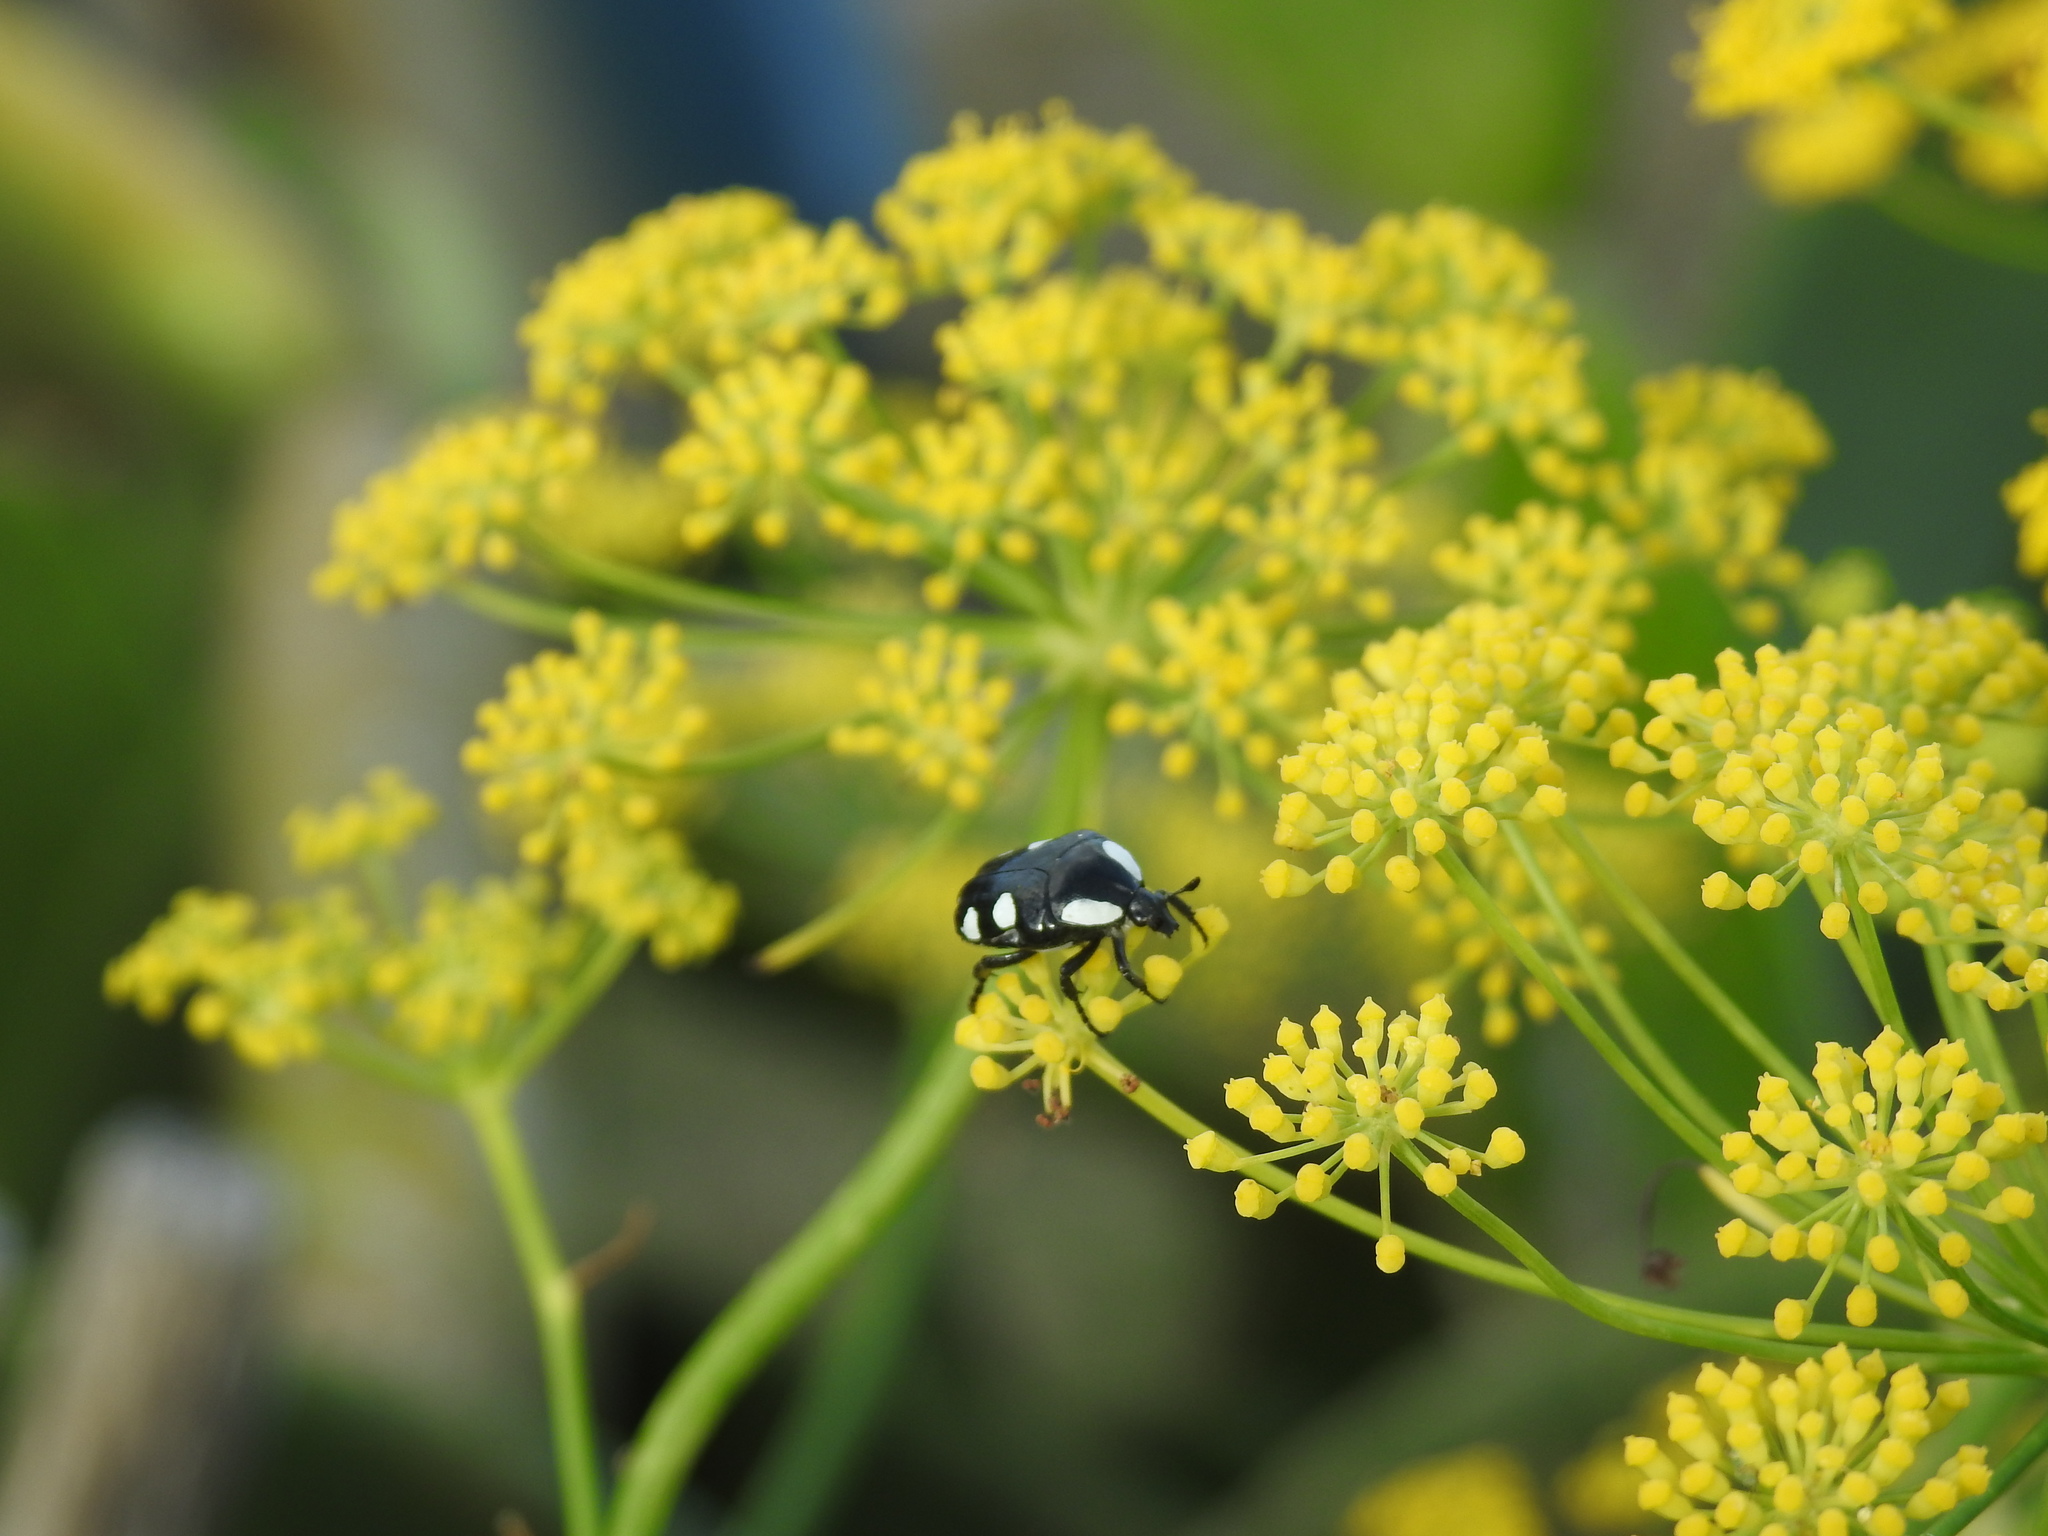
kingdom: Animalia
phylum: Arthropoda
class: Insecta
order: Coleoptera
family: Scarabaeidae
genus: Mausoleopsis
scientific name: Mausoleopsis amabilis
